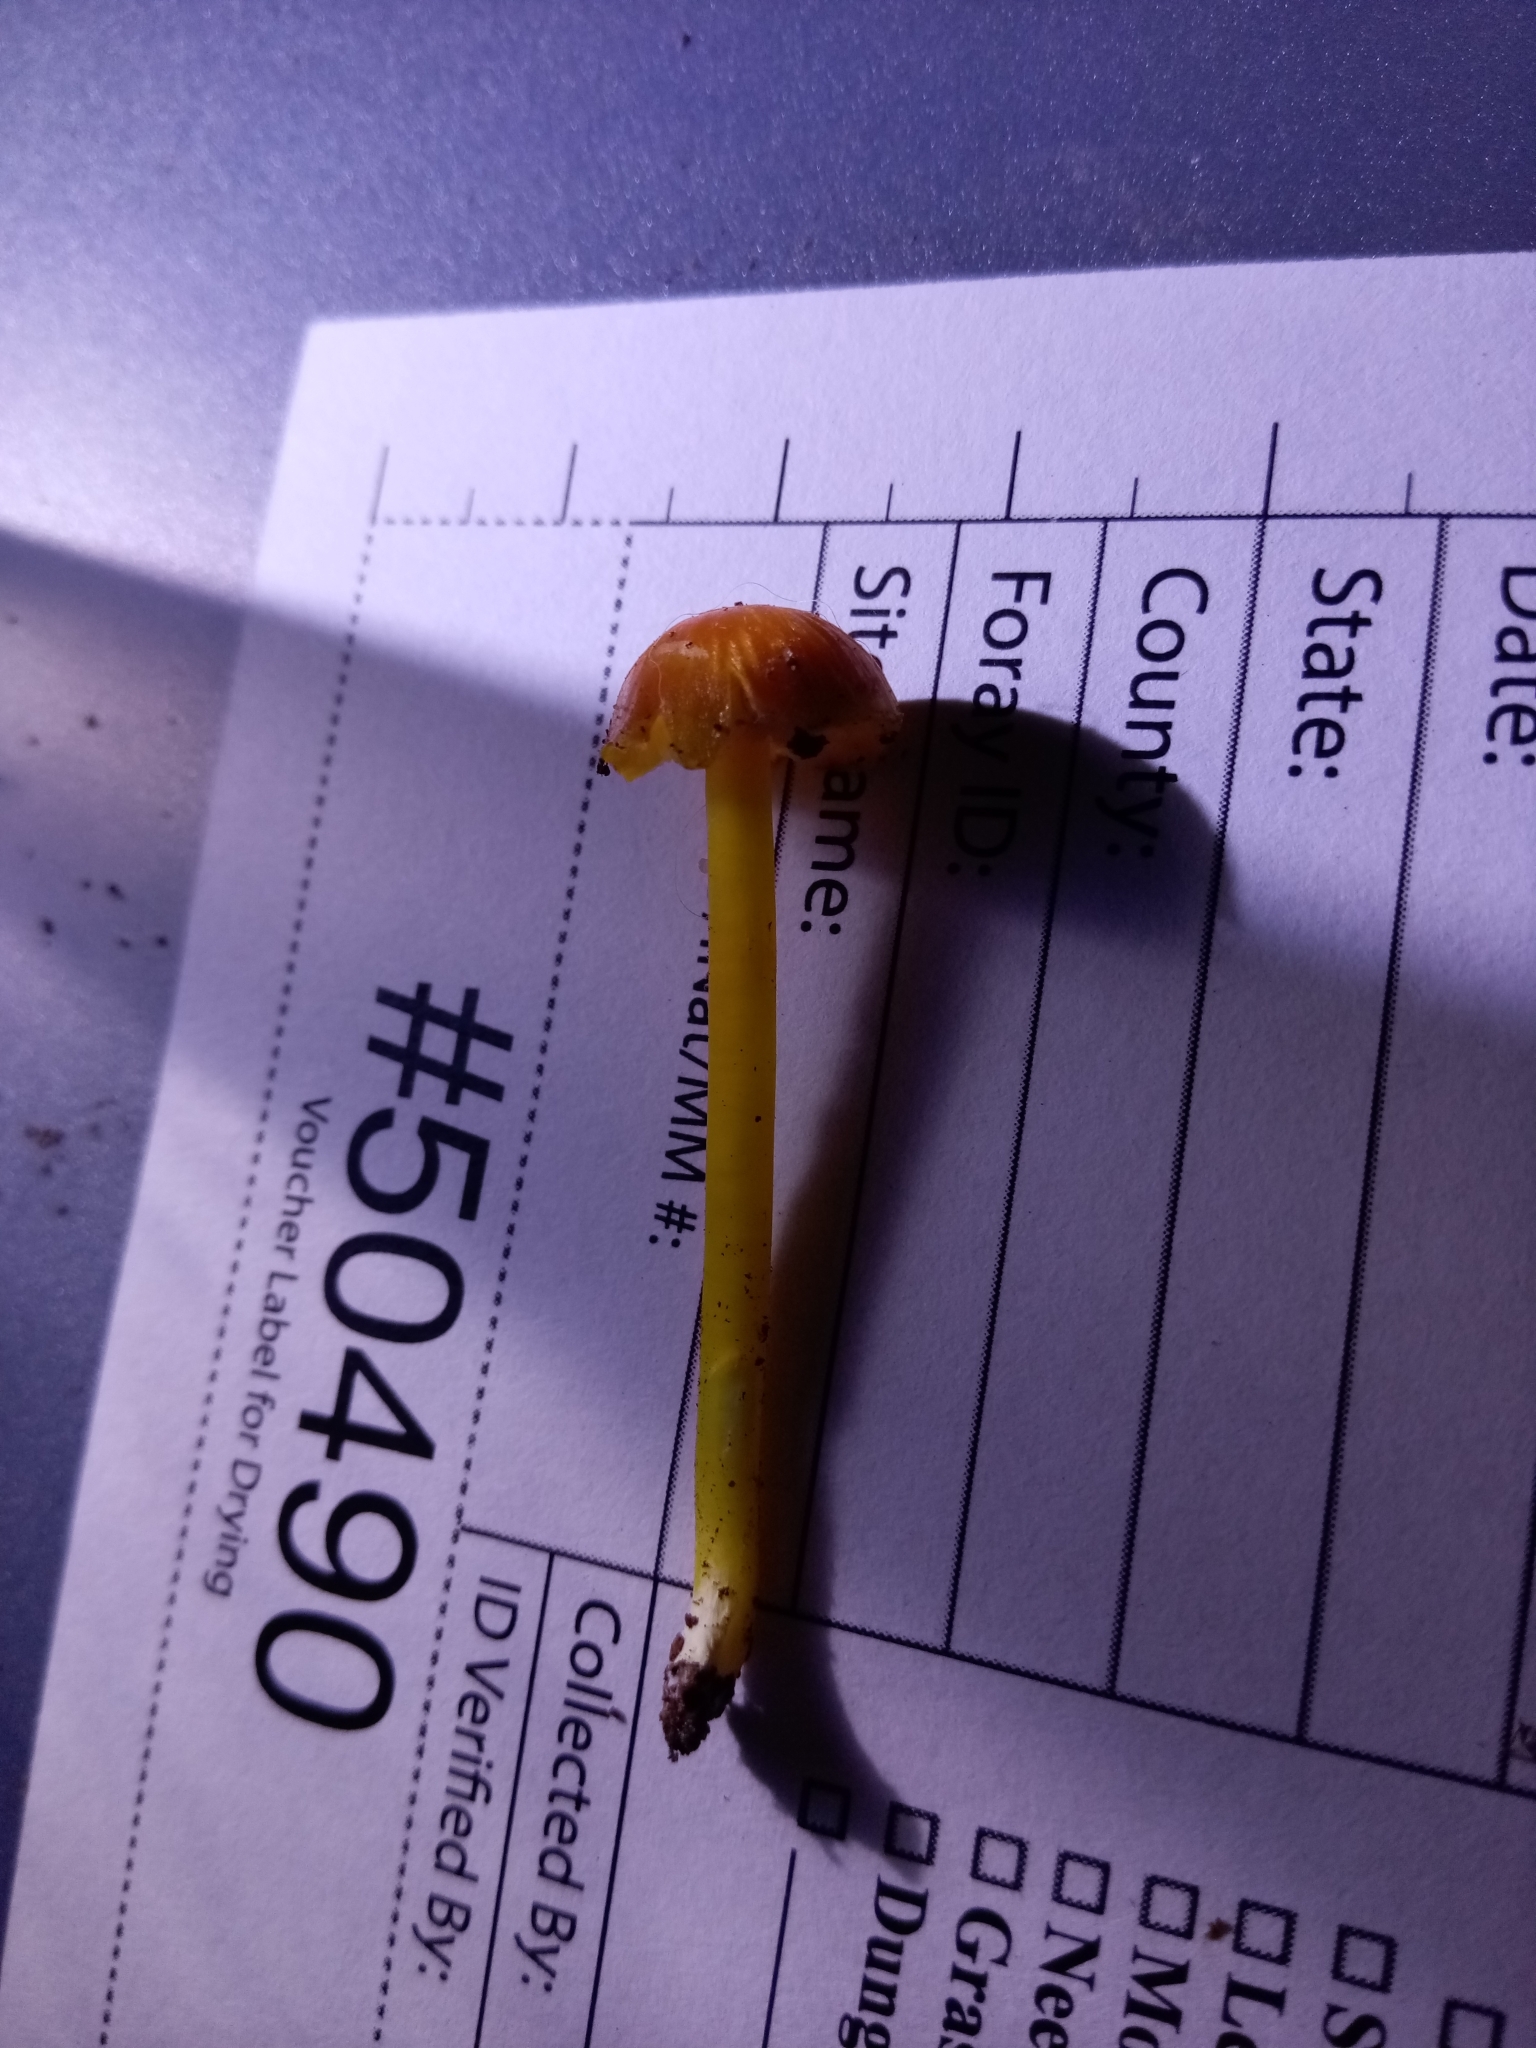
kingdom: Fungi
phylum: Basidiomycota
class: Agaricomycetes
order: Agaricales
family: Hygrophoraceae
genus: Hygrocybe
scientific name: Hygrocybe chlorophana
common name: Golden waxcap
